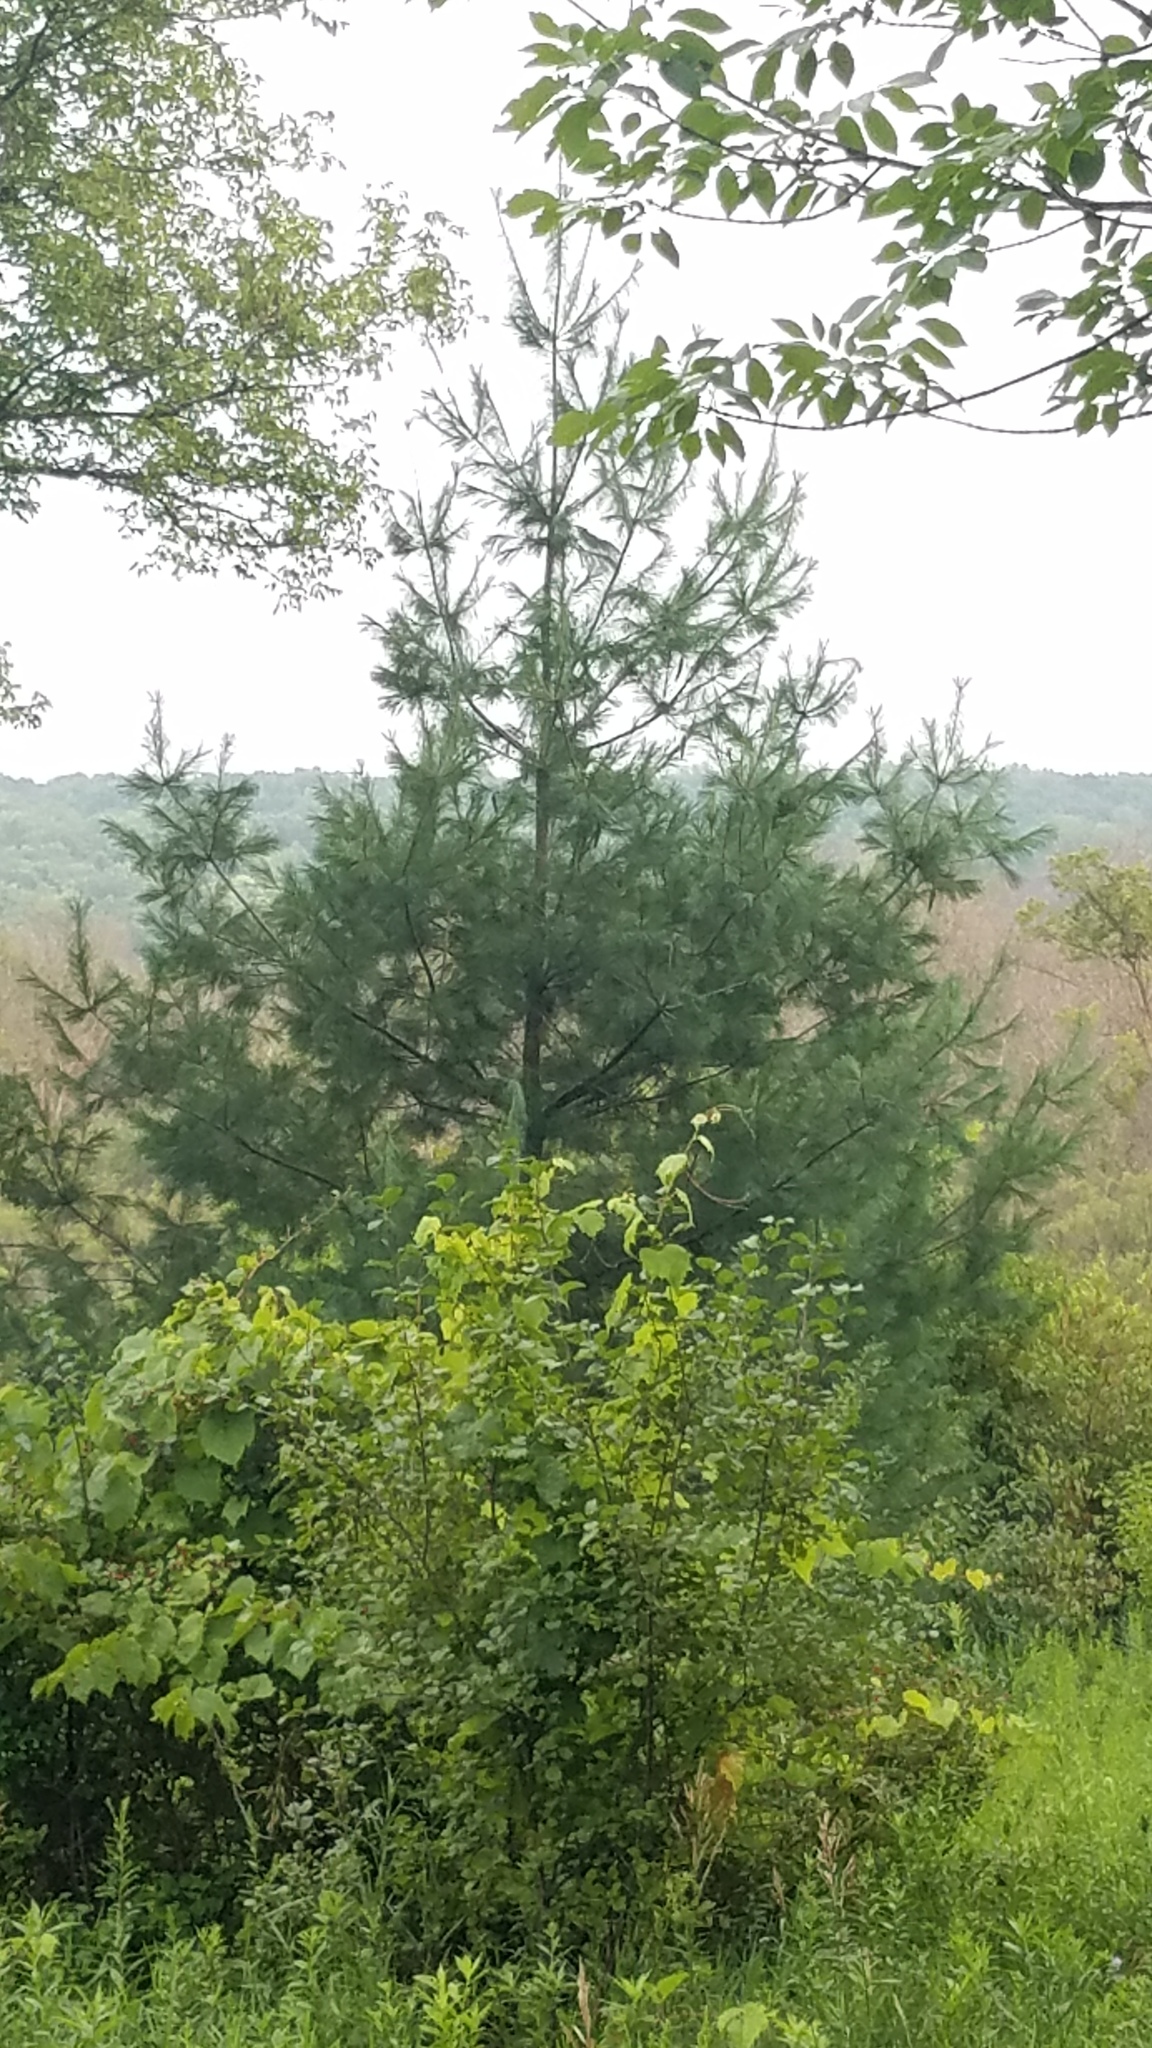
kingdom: Plantae
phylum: Tracheophyta
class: Pinopsida
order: Pinales
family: Pinaceae
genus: Pinus
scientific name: Pinus strobus
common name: Weymouth pine
